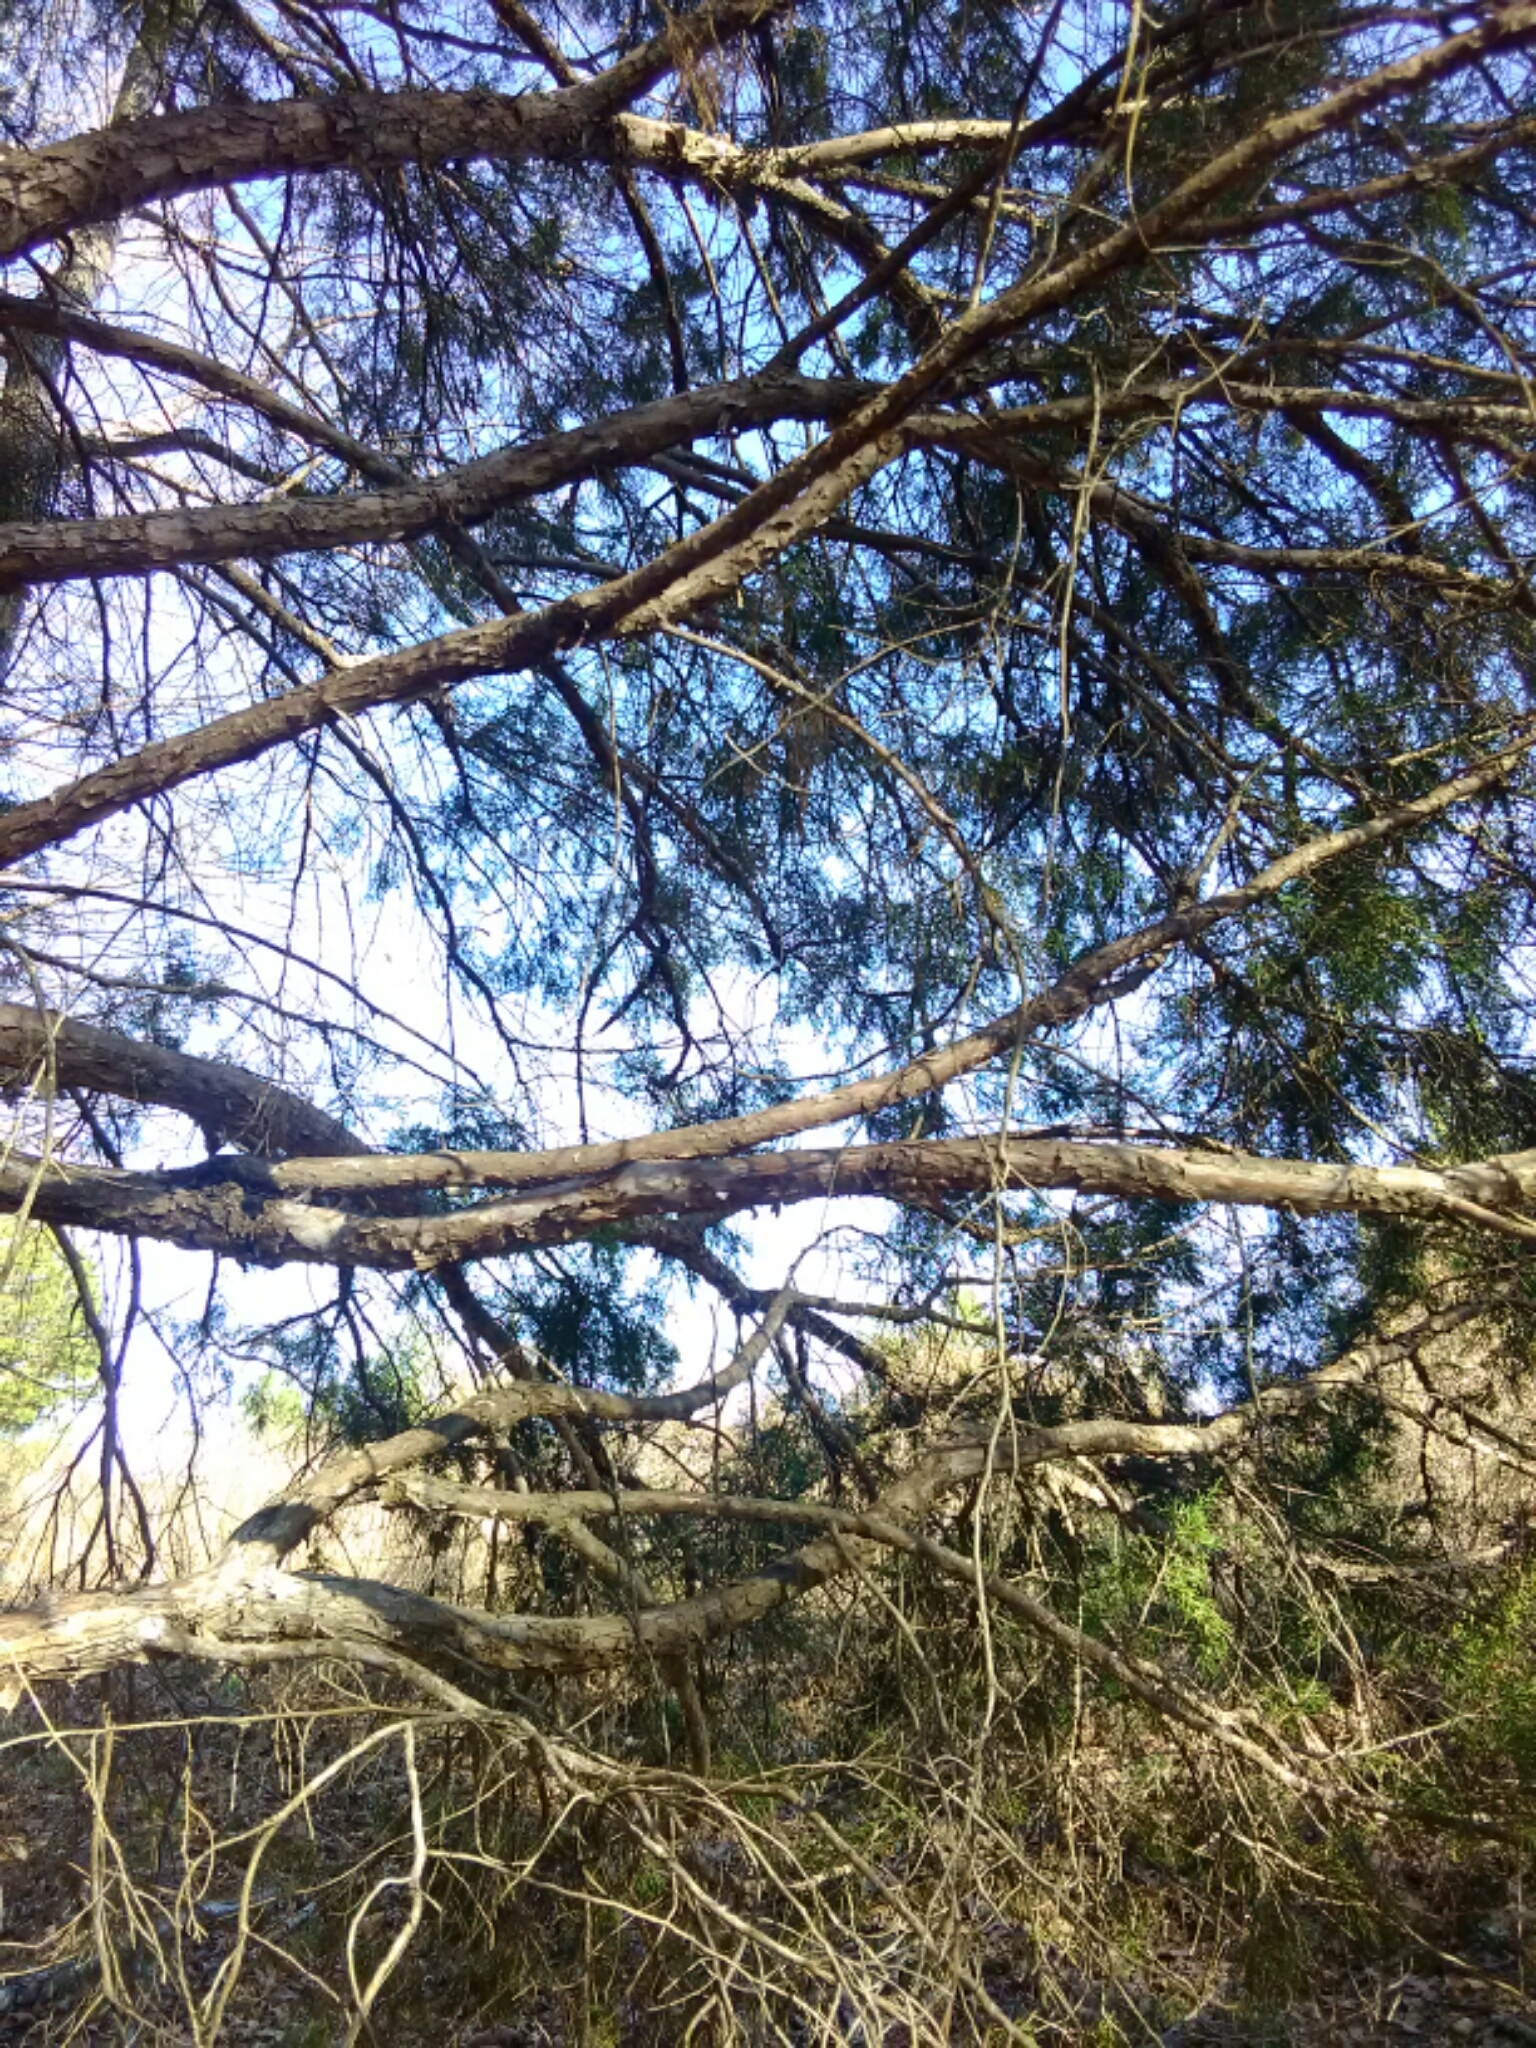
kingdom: Plantae
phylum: Tracheophyta
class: Pinopsida
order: Pinales
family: Cupressaceae
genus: Juniperus
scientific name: Juniperus virginiana
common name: Red juniper
